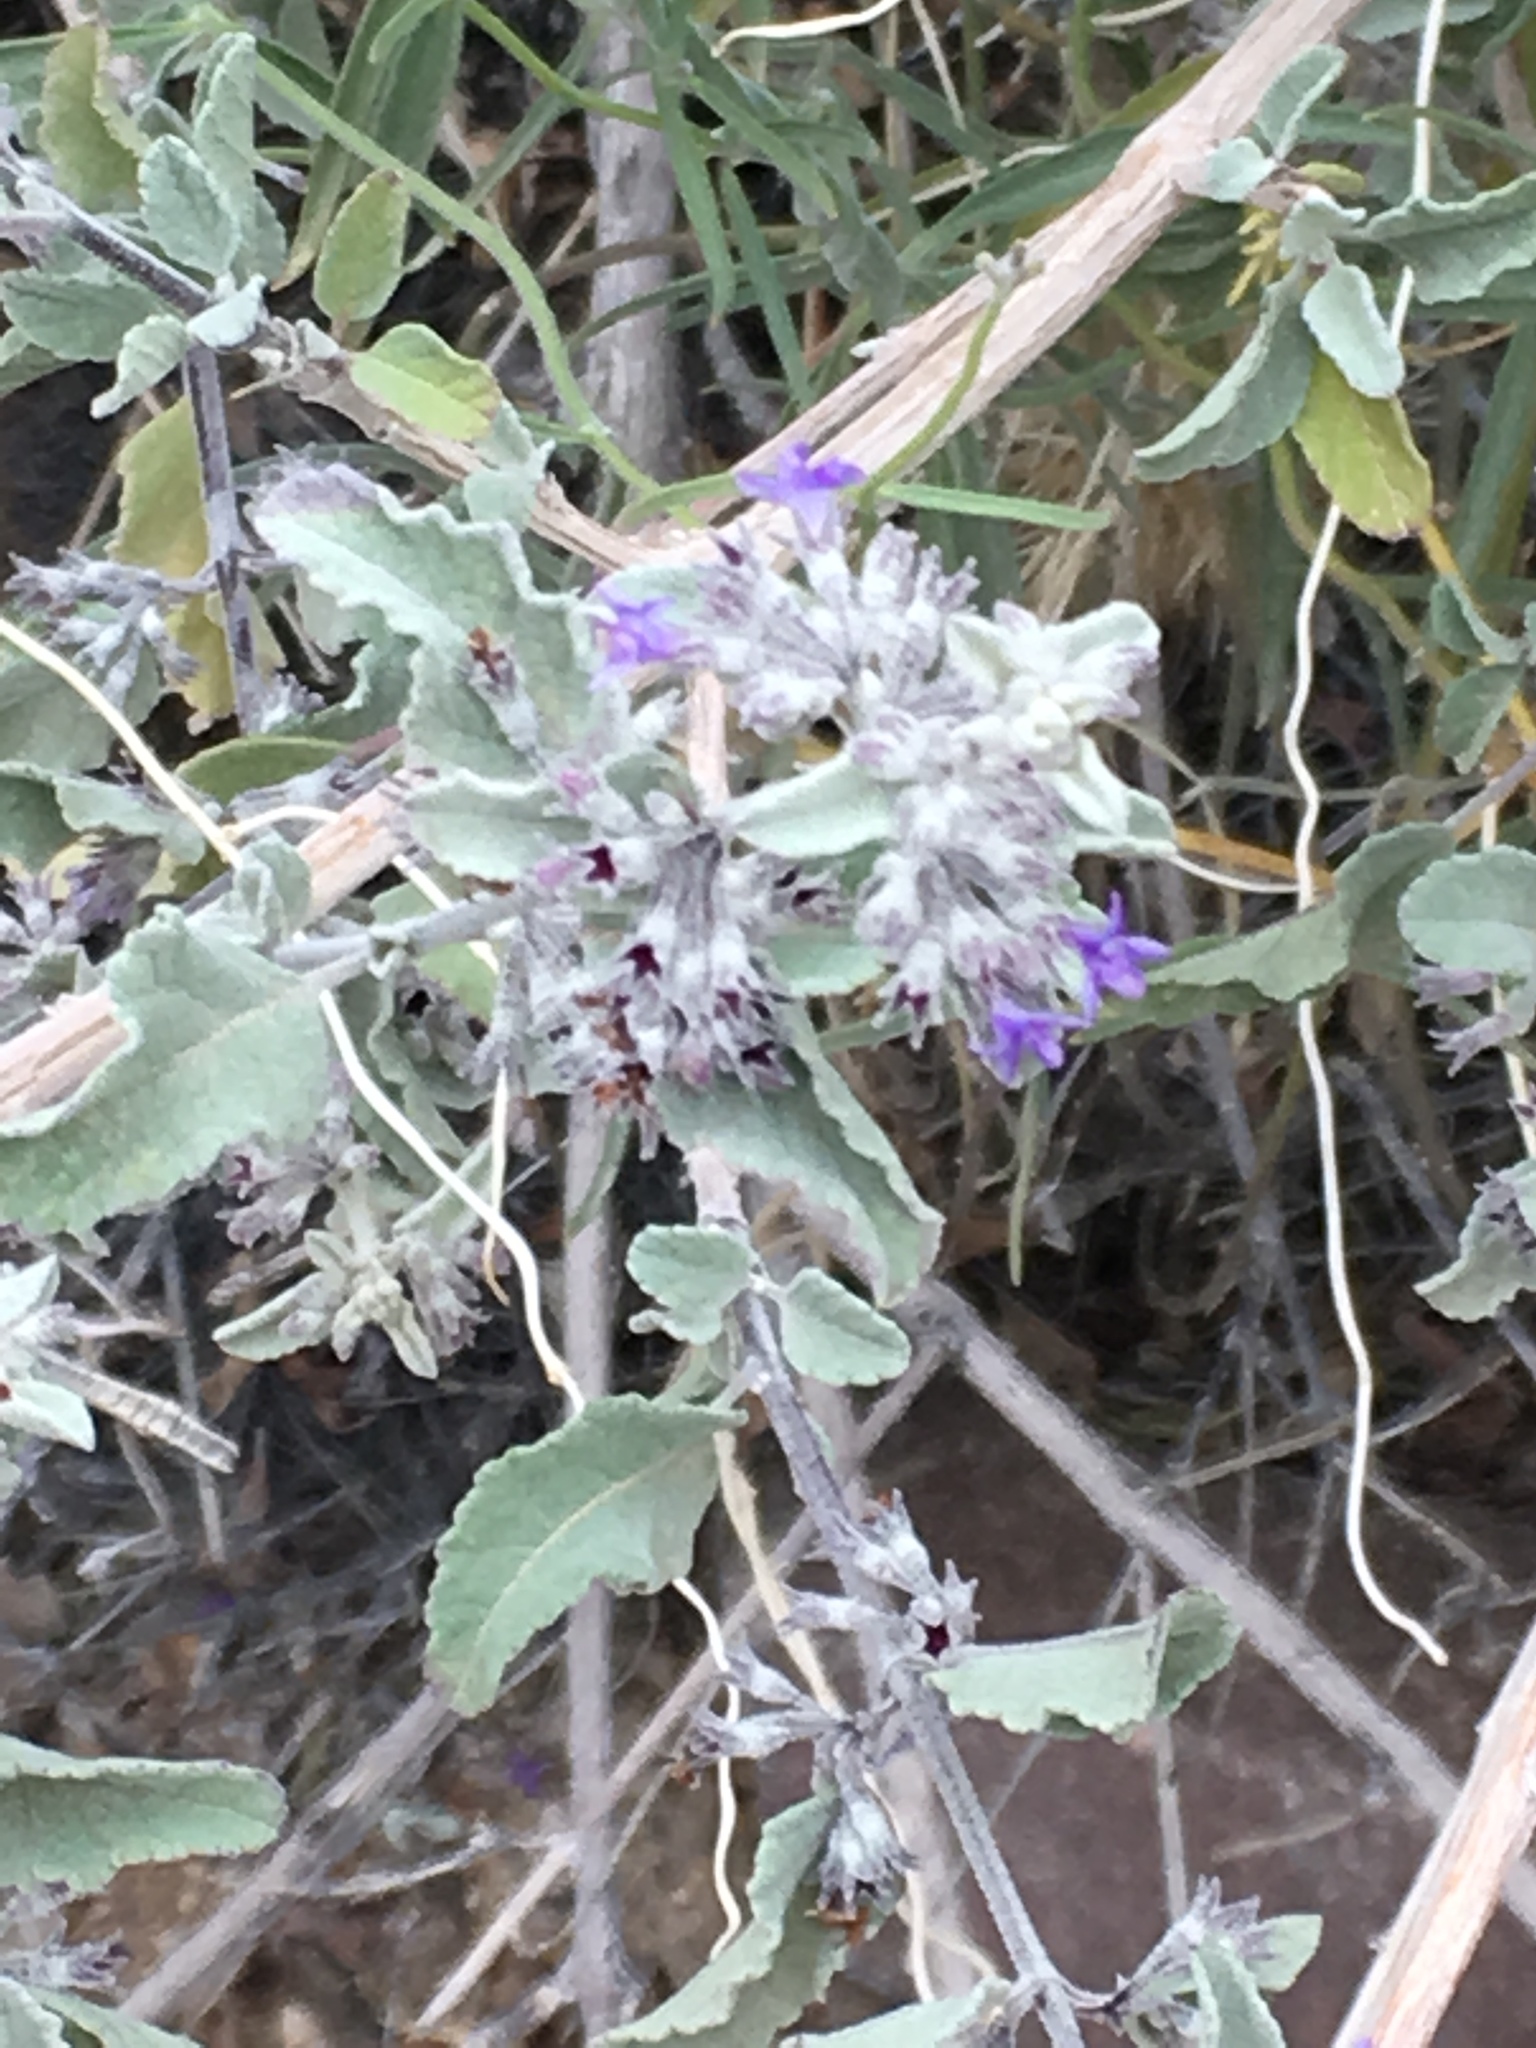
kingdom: Plantae
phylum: Tracheophyta
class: Magnoliopsida
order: Lamiales
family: Lamiaceae
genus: Condea
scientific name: Condea emoryi
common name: Chia
